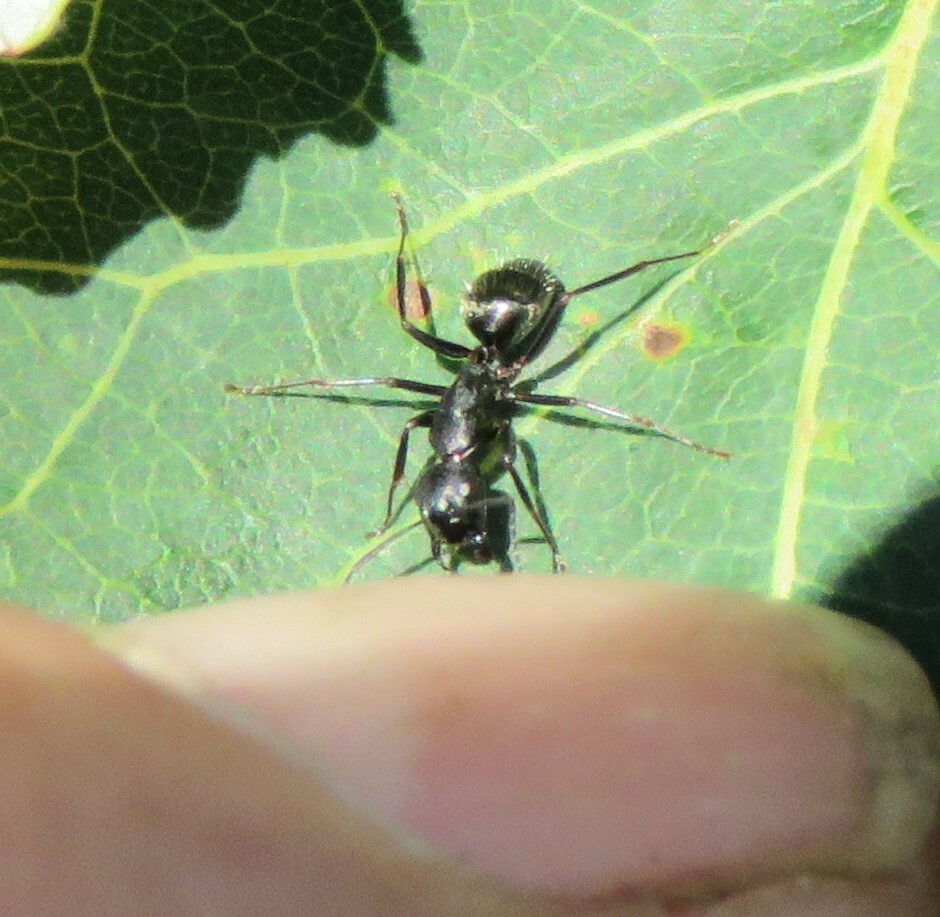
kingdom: Animalia
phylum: Arthropoda
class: Insecta
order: Hymenoptera
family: Formicidae
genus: Camponotus
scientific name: Camponotus pennsylvanicus
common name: Black carpenter ant
